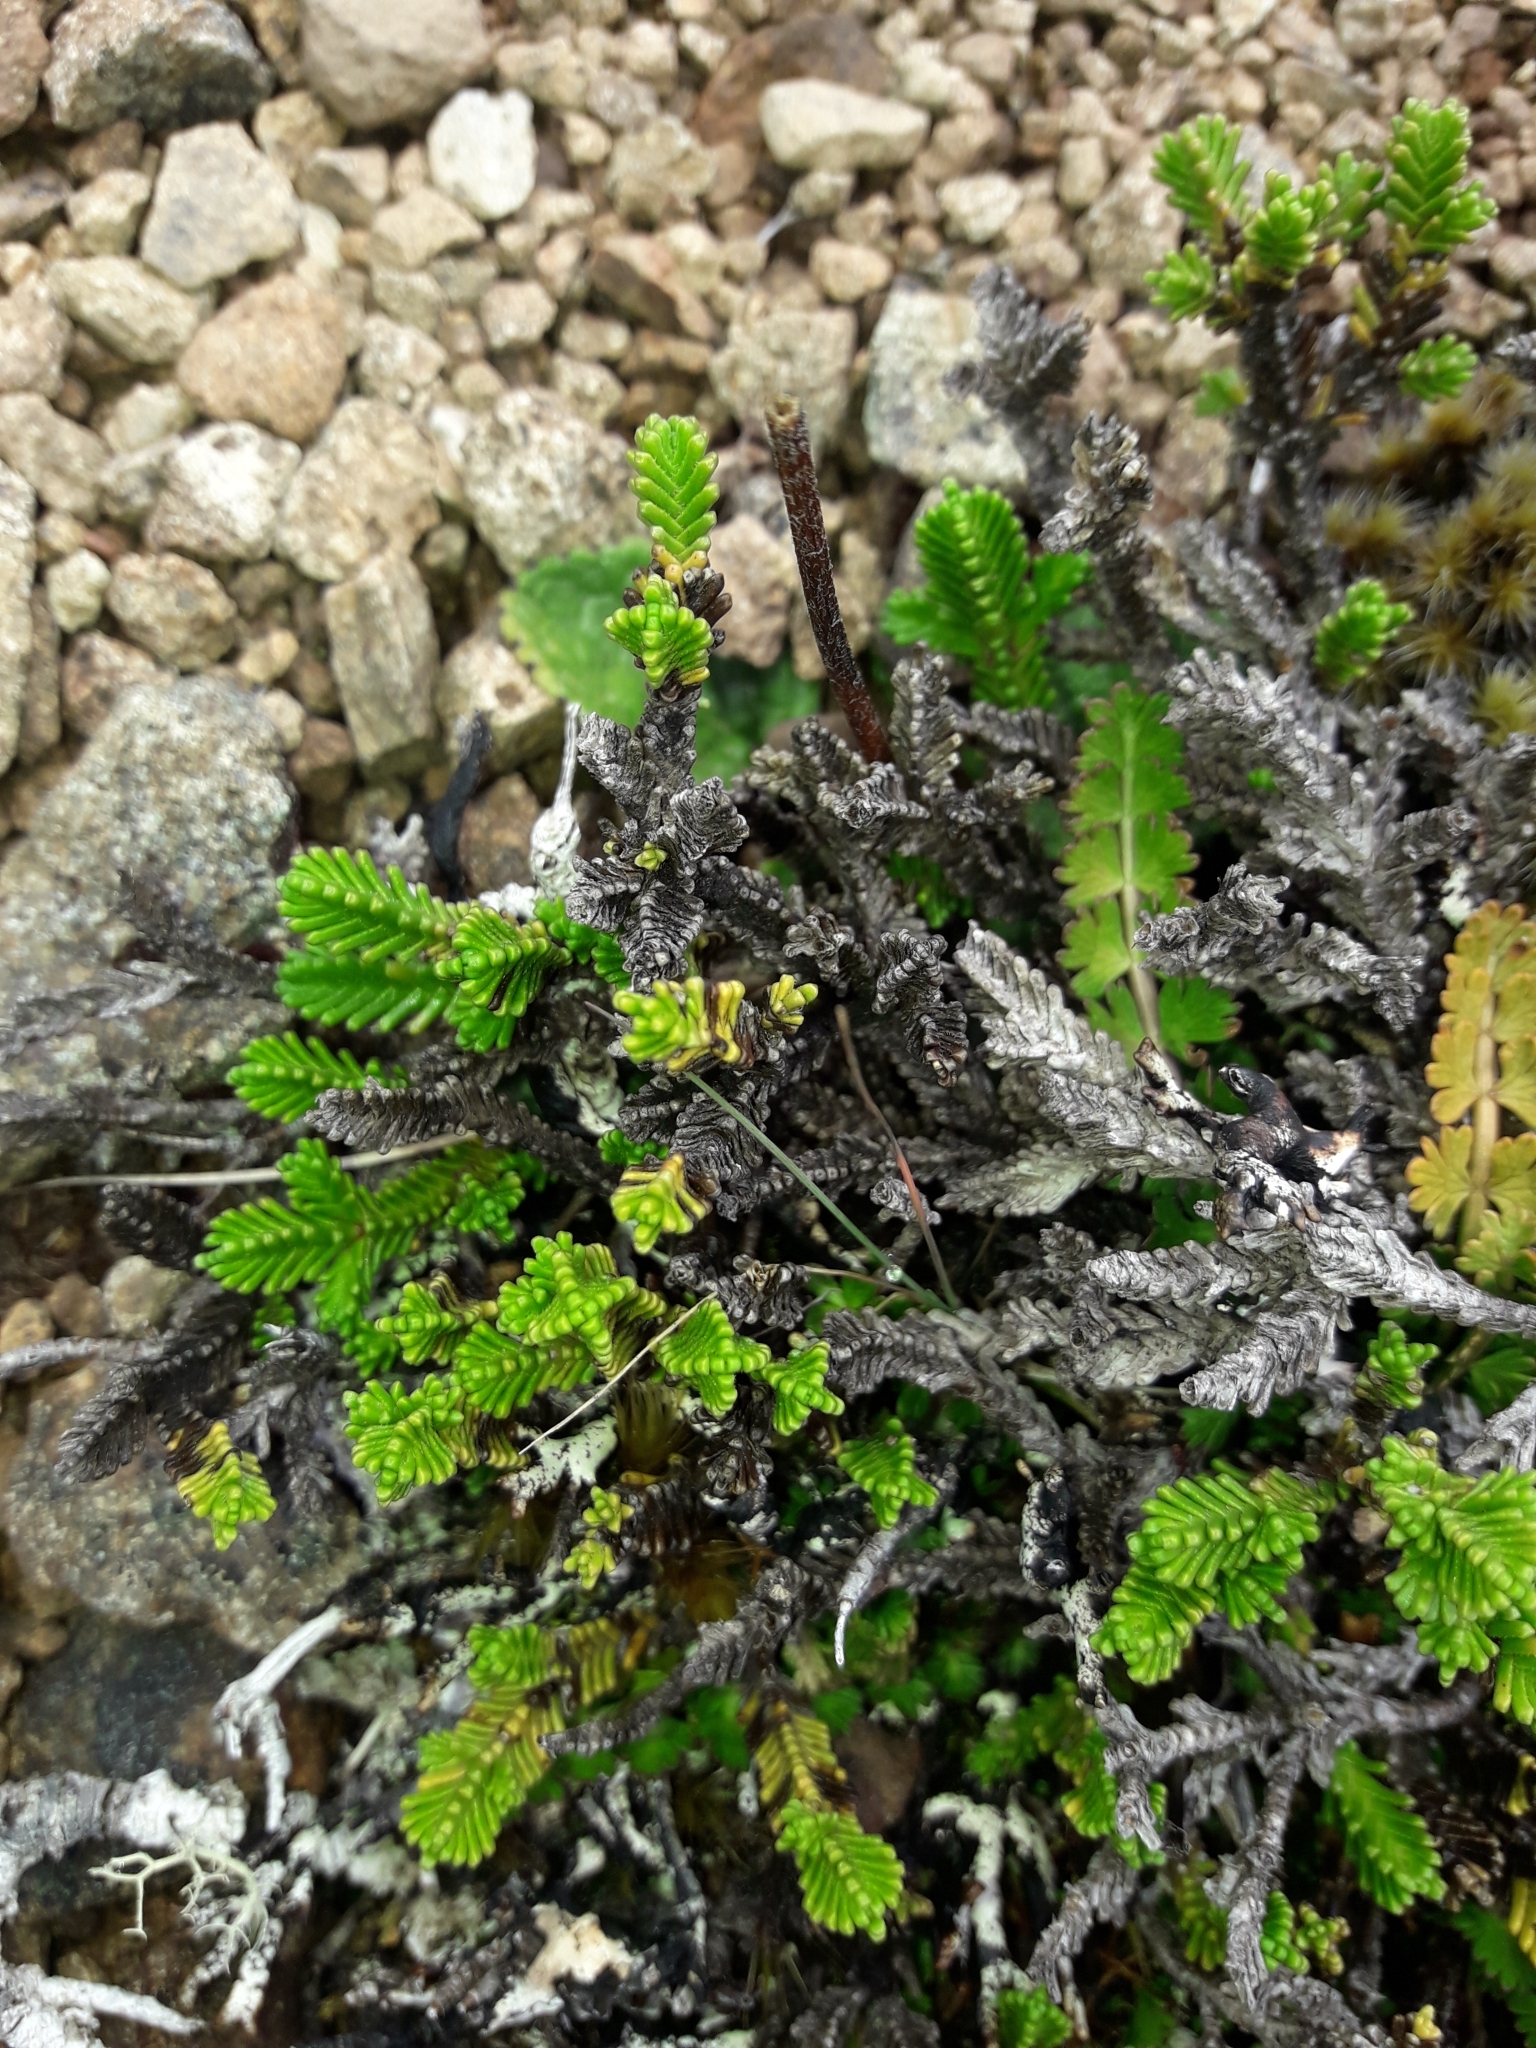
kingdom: Plantae
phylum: Tracheophyta
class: Magnoliopsida
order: Lamiales
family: Plantaginaceae
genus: Veronica
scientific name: Veronica hookeri
